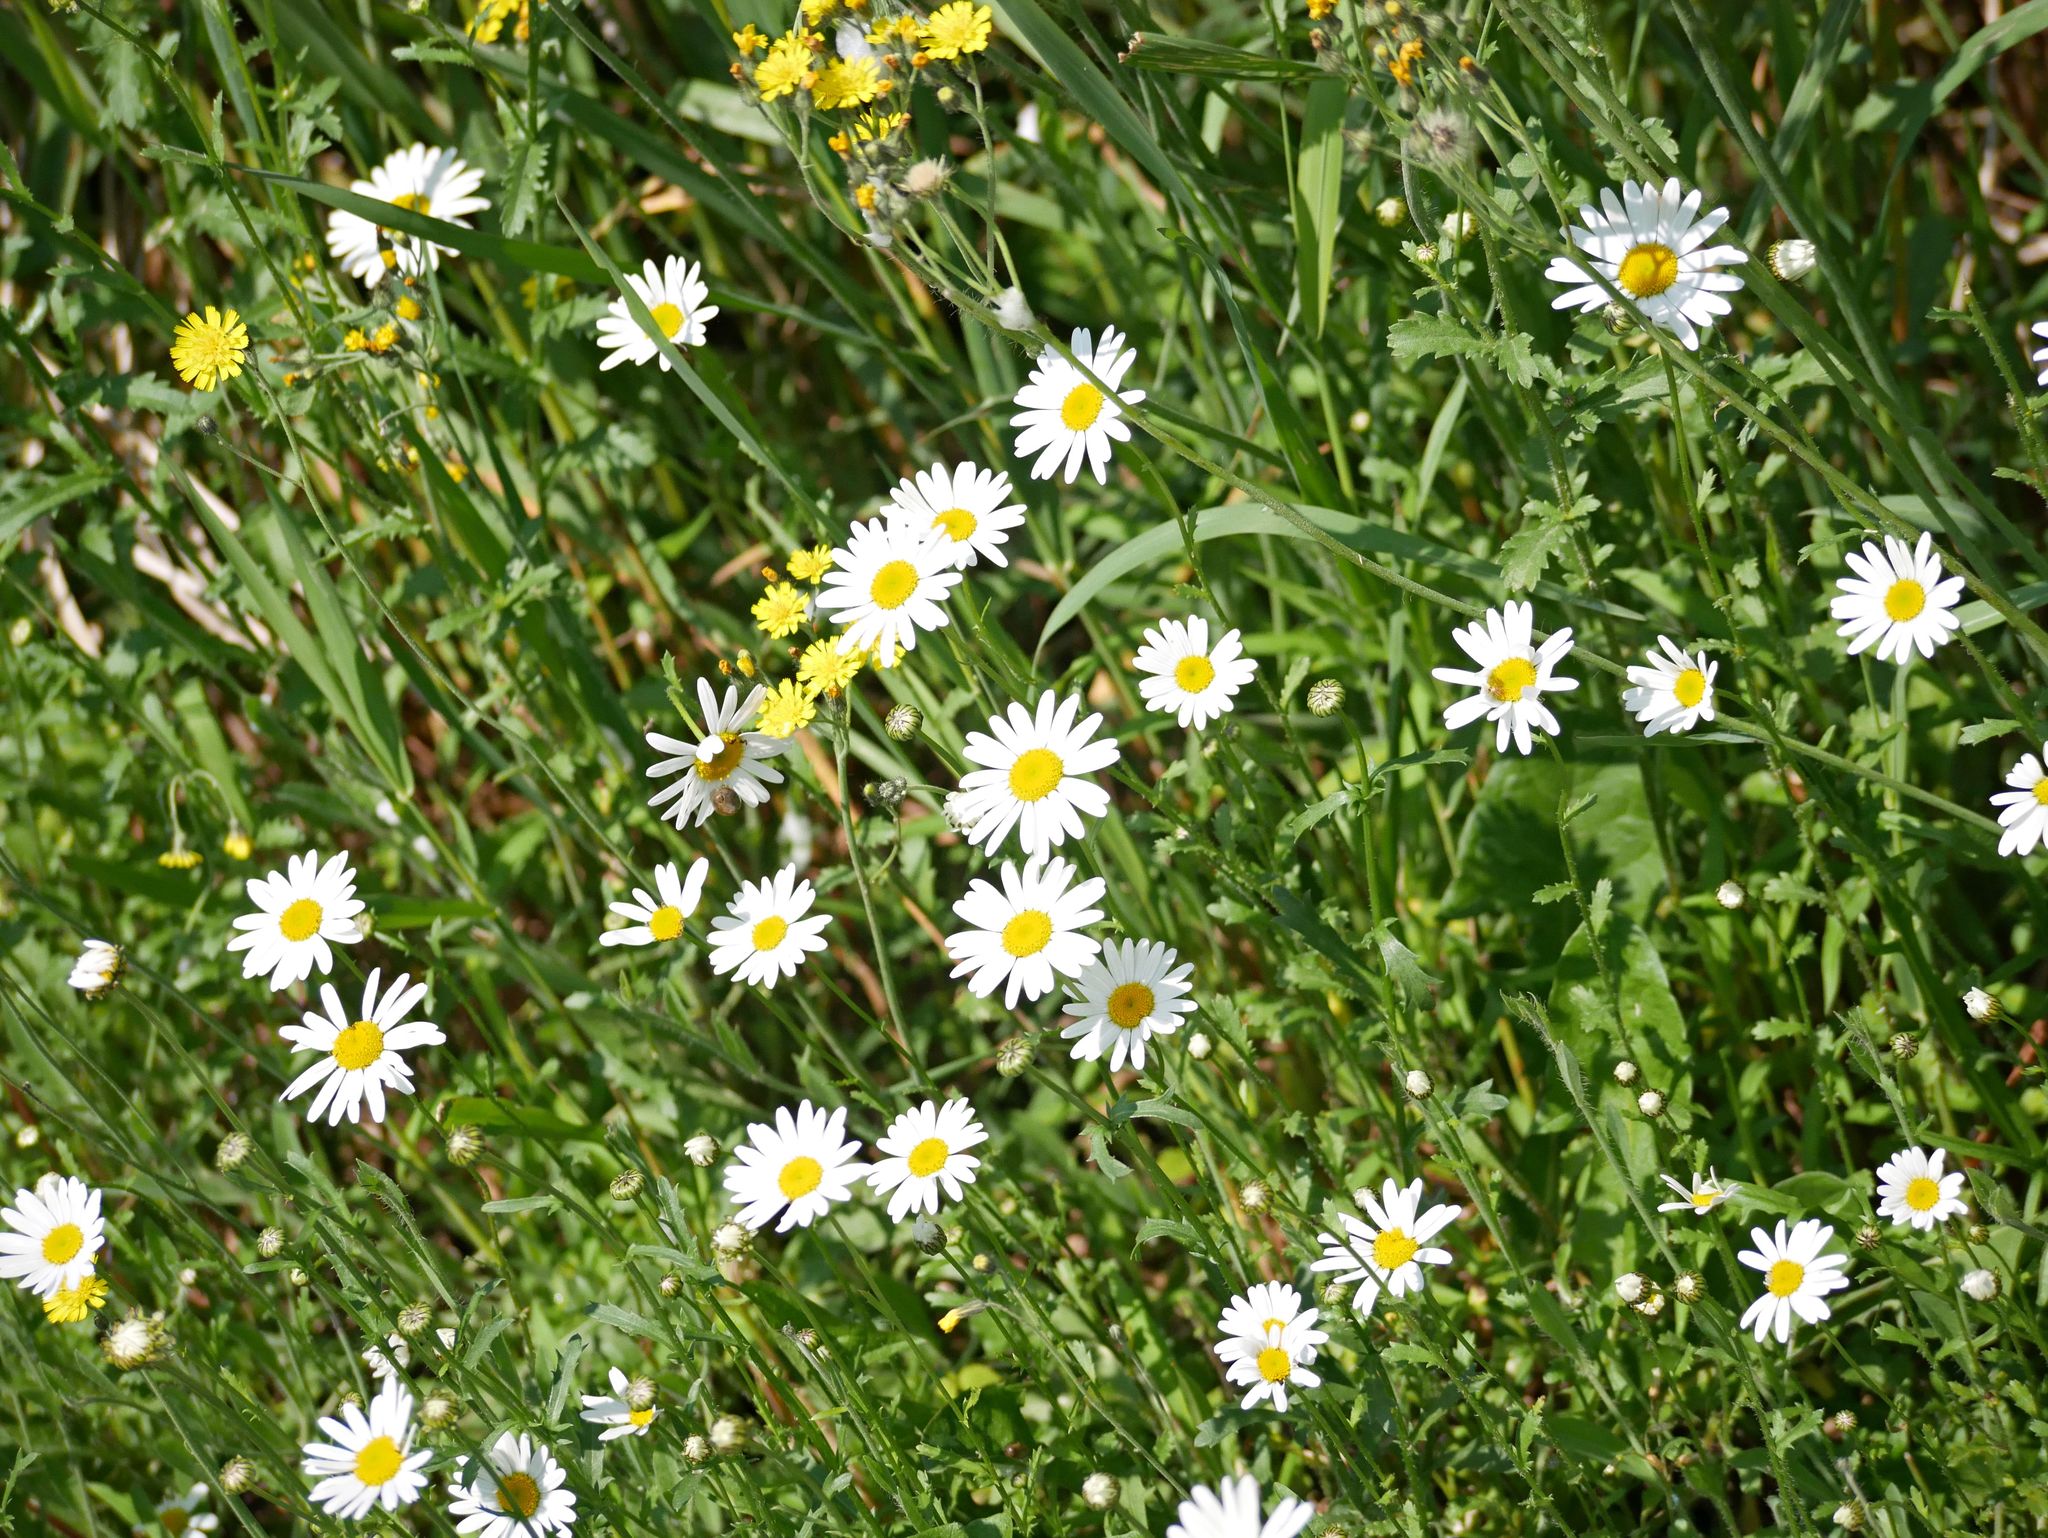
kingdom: Plantae
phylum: Tracheophyta
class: Magnoliopsida
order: Asterales
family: Asteraceae
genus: Leucanthemum
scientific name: Leucanthemum vulgare
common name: Oxeye daisy
